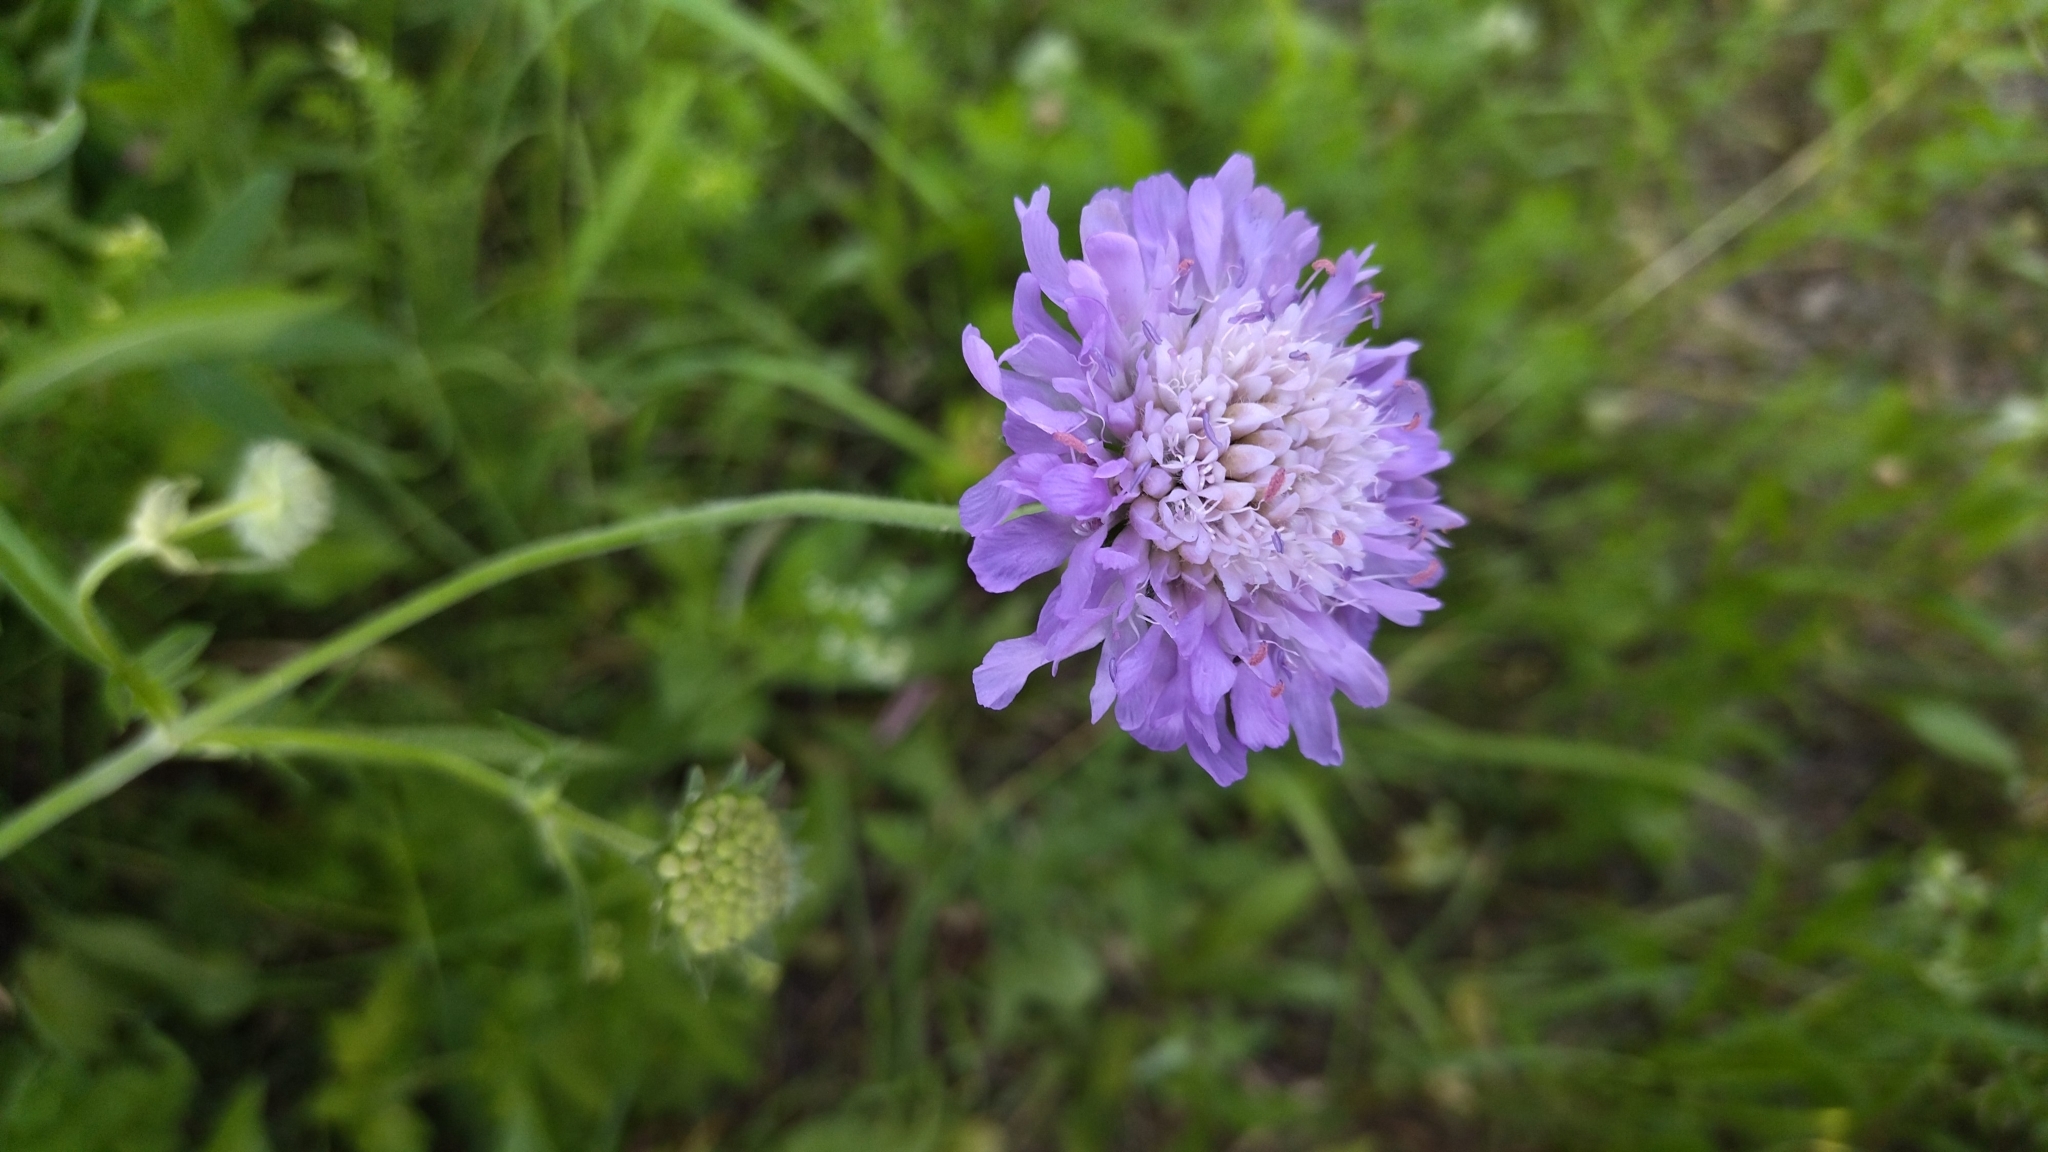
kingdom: Plantae
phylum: Tracheophyta
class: Magnoliopsida
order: Dipsacales
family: Caprifoliaceae
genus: Knautia
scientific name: Knautia arvensis
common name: Field scabiosa
